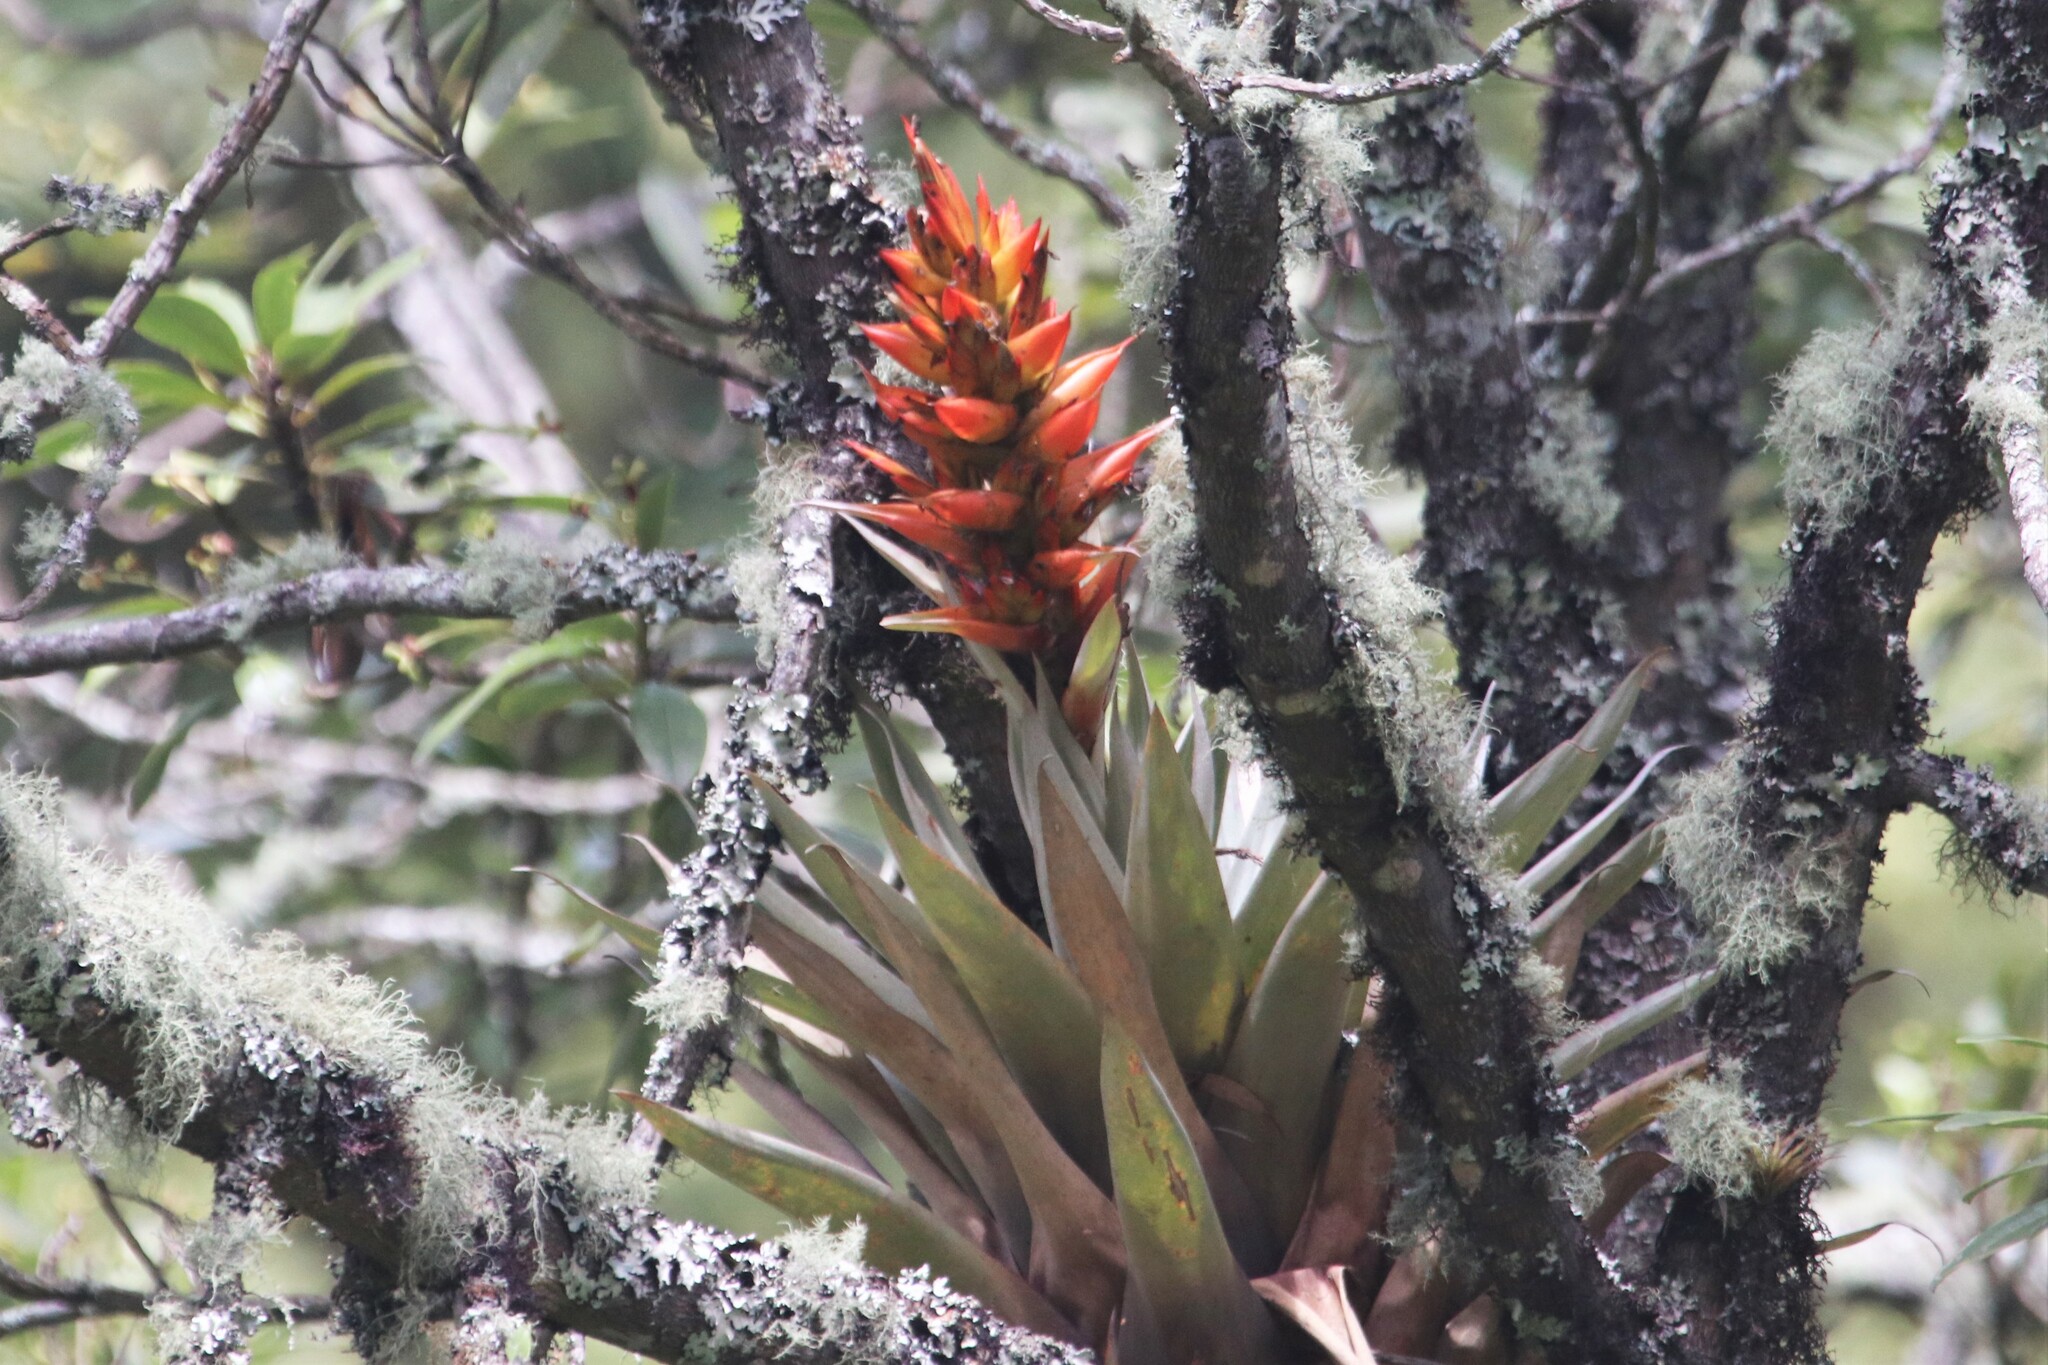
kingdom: Plantae
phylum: Tracheophyta
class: Liliopsida
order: Poales
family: Bromeliaceae
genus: Tillandsia
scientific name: Tillandsia turneri
